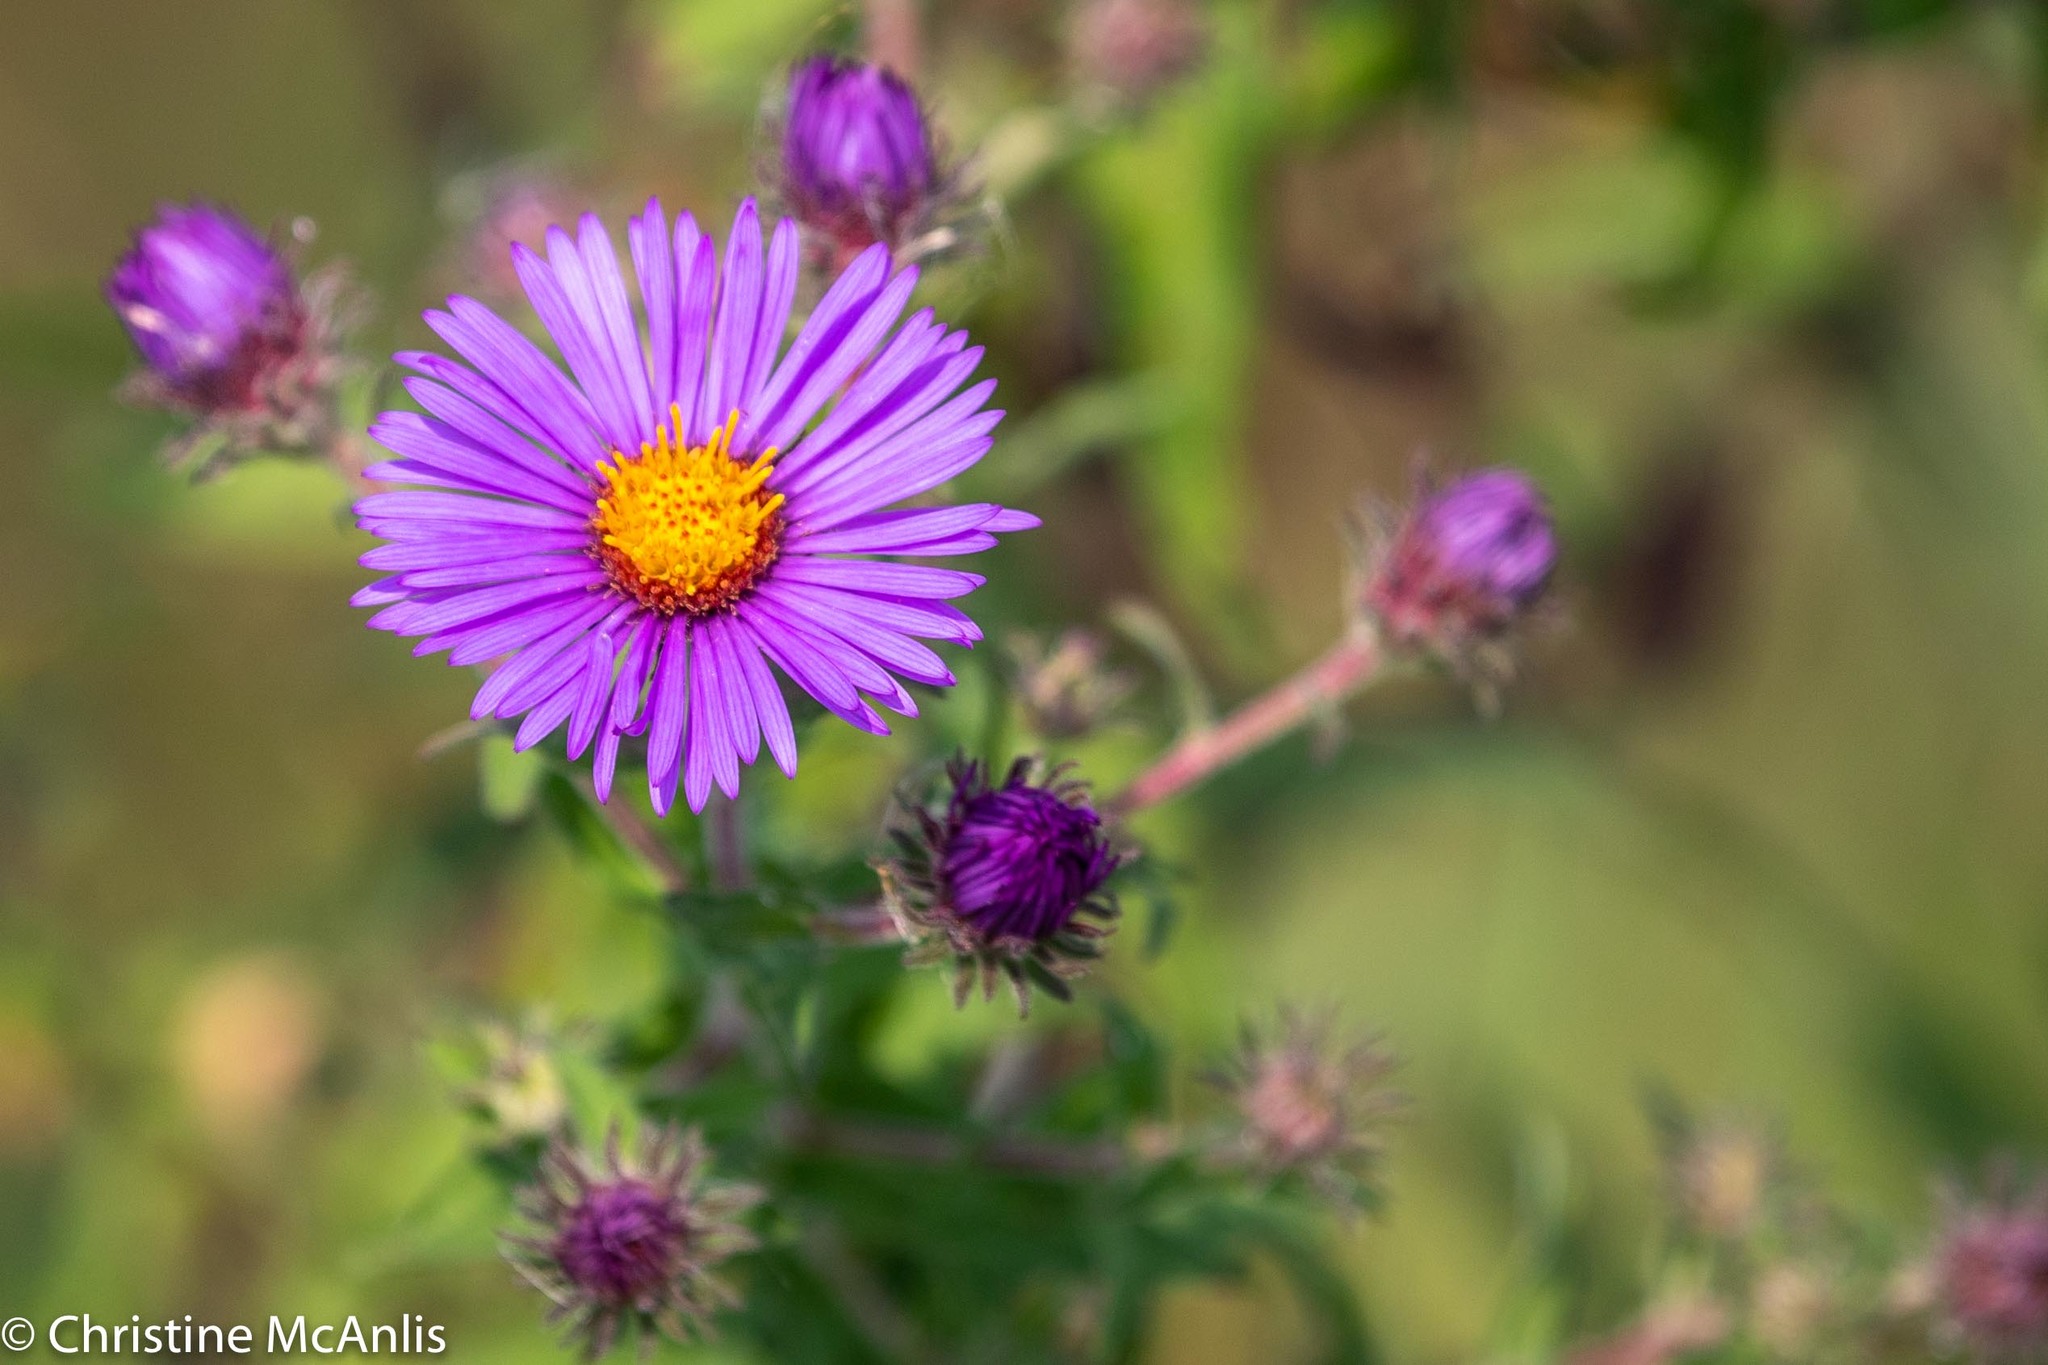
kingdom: Plantae
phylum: Tracheophyta
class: Magnoliopsida
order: Asterales
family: Asteraceae
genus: Symphyotrichum
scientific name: Symphyotrichum novae-angliae
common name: Michaelmas daisy
